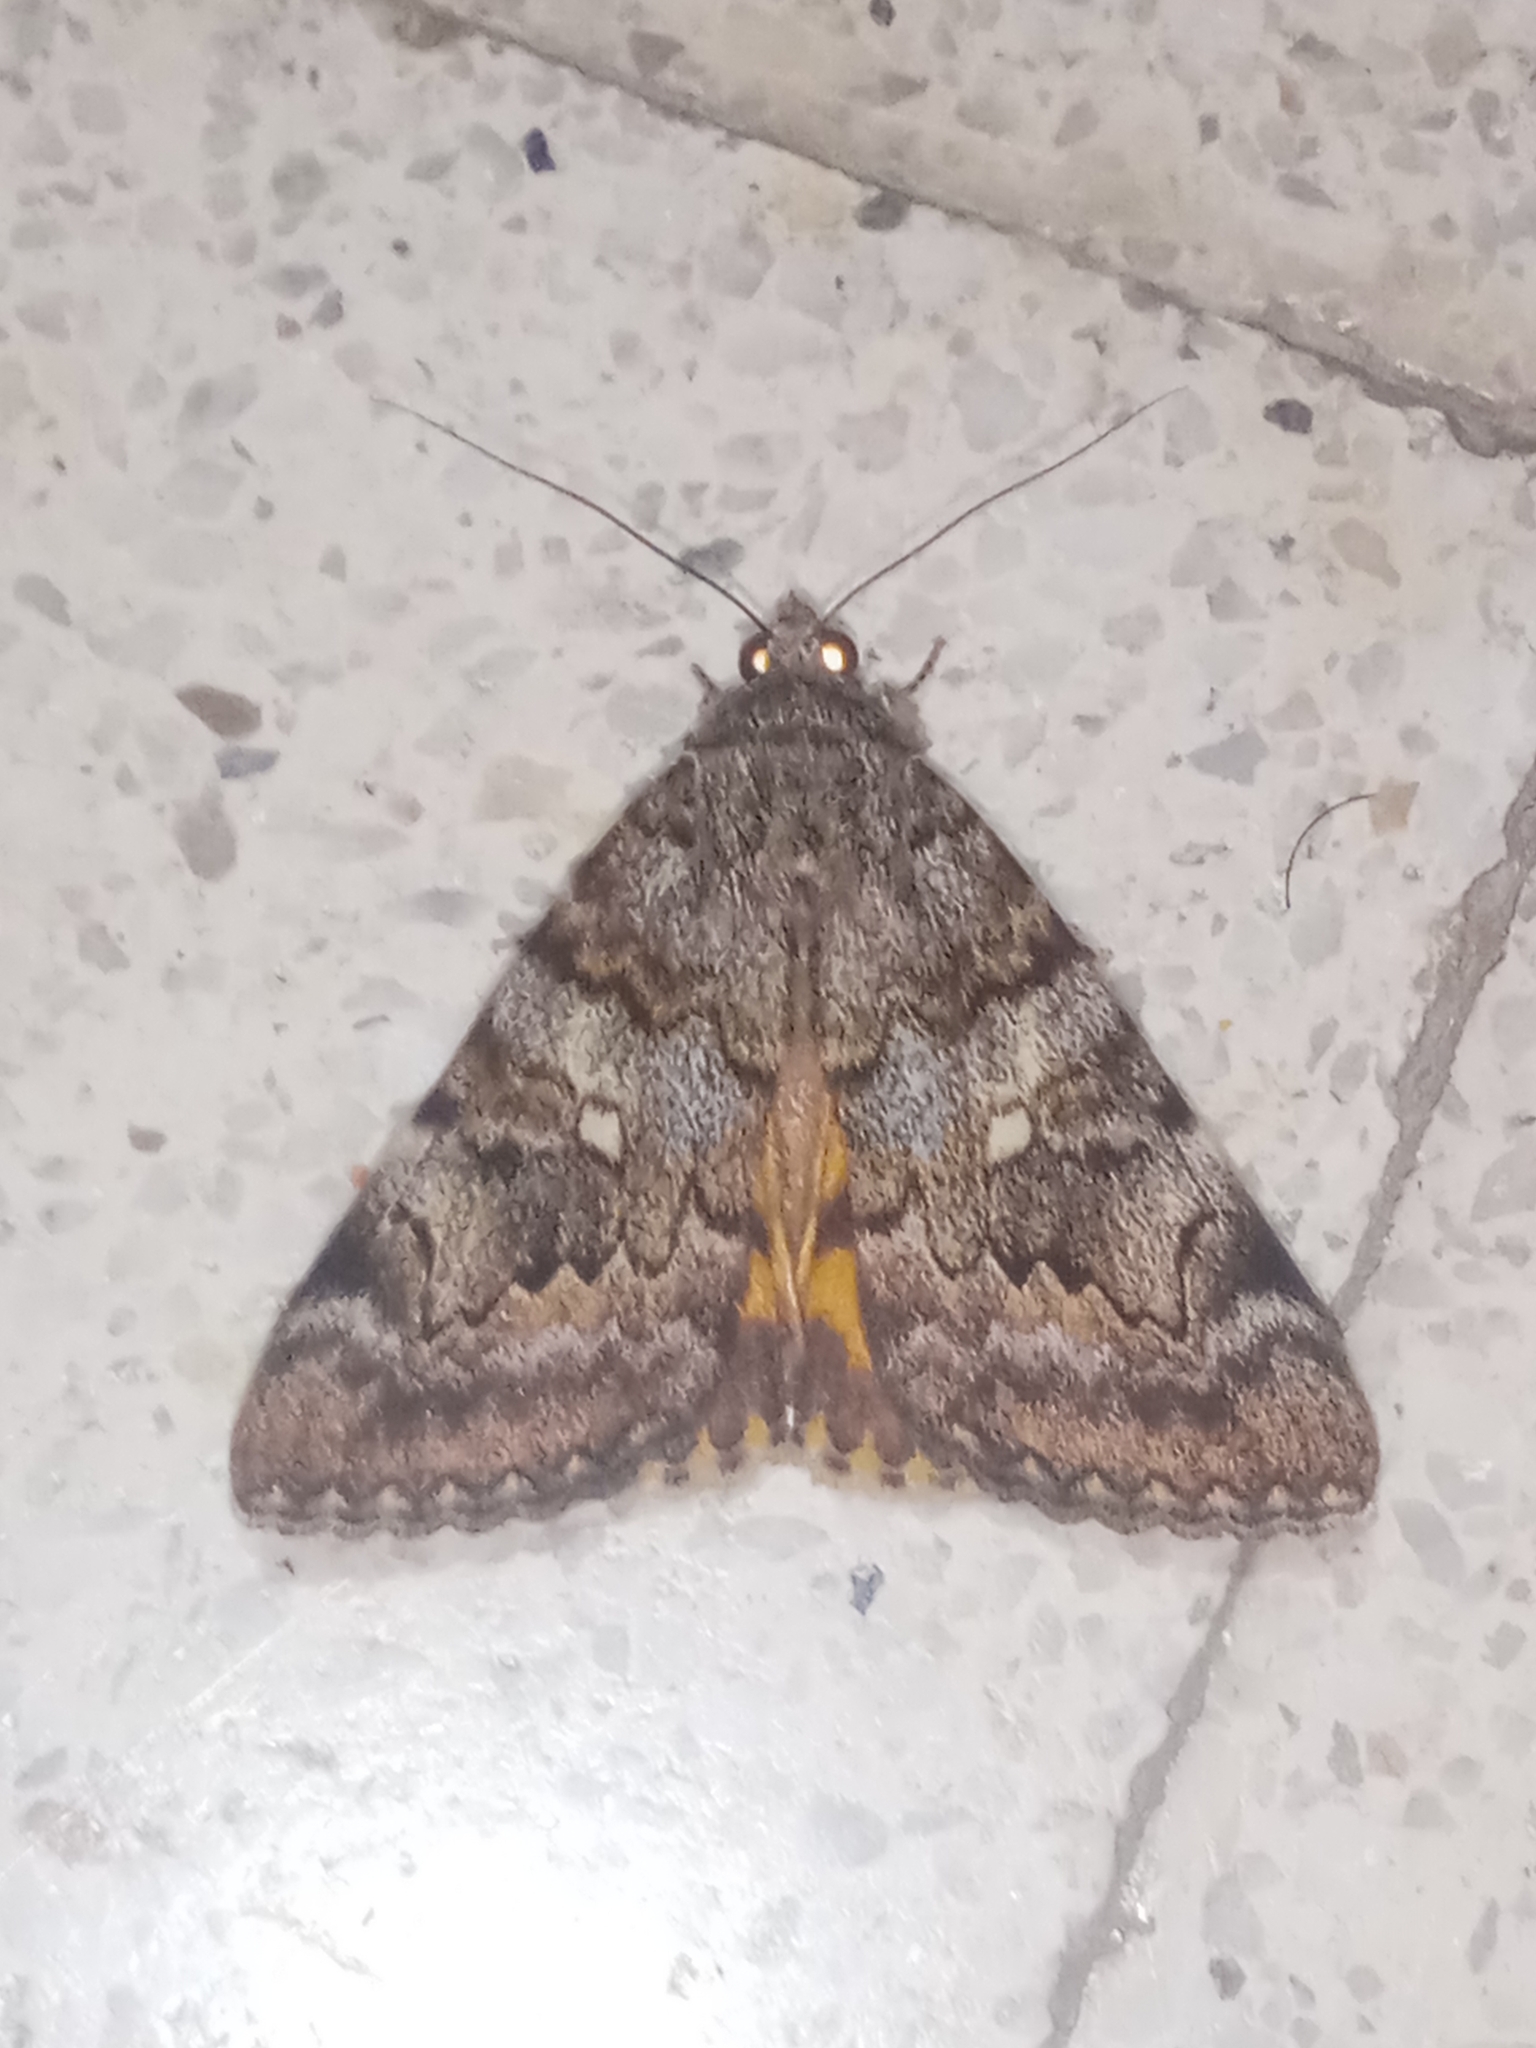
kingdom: Animalia
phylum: Arthropoda
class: Insecta
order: Lepidoptera
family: Erebidae
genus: Catocala
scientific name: Catocala nymphaea
